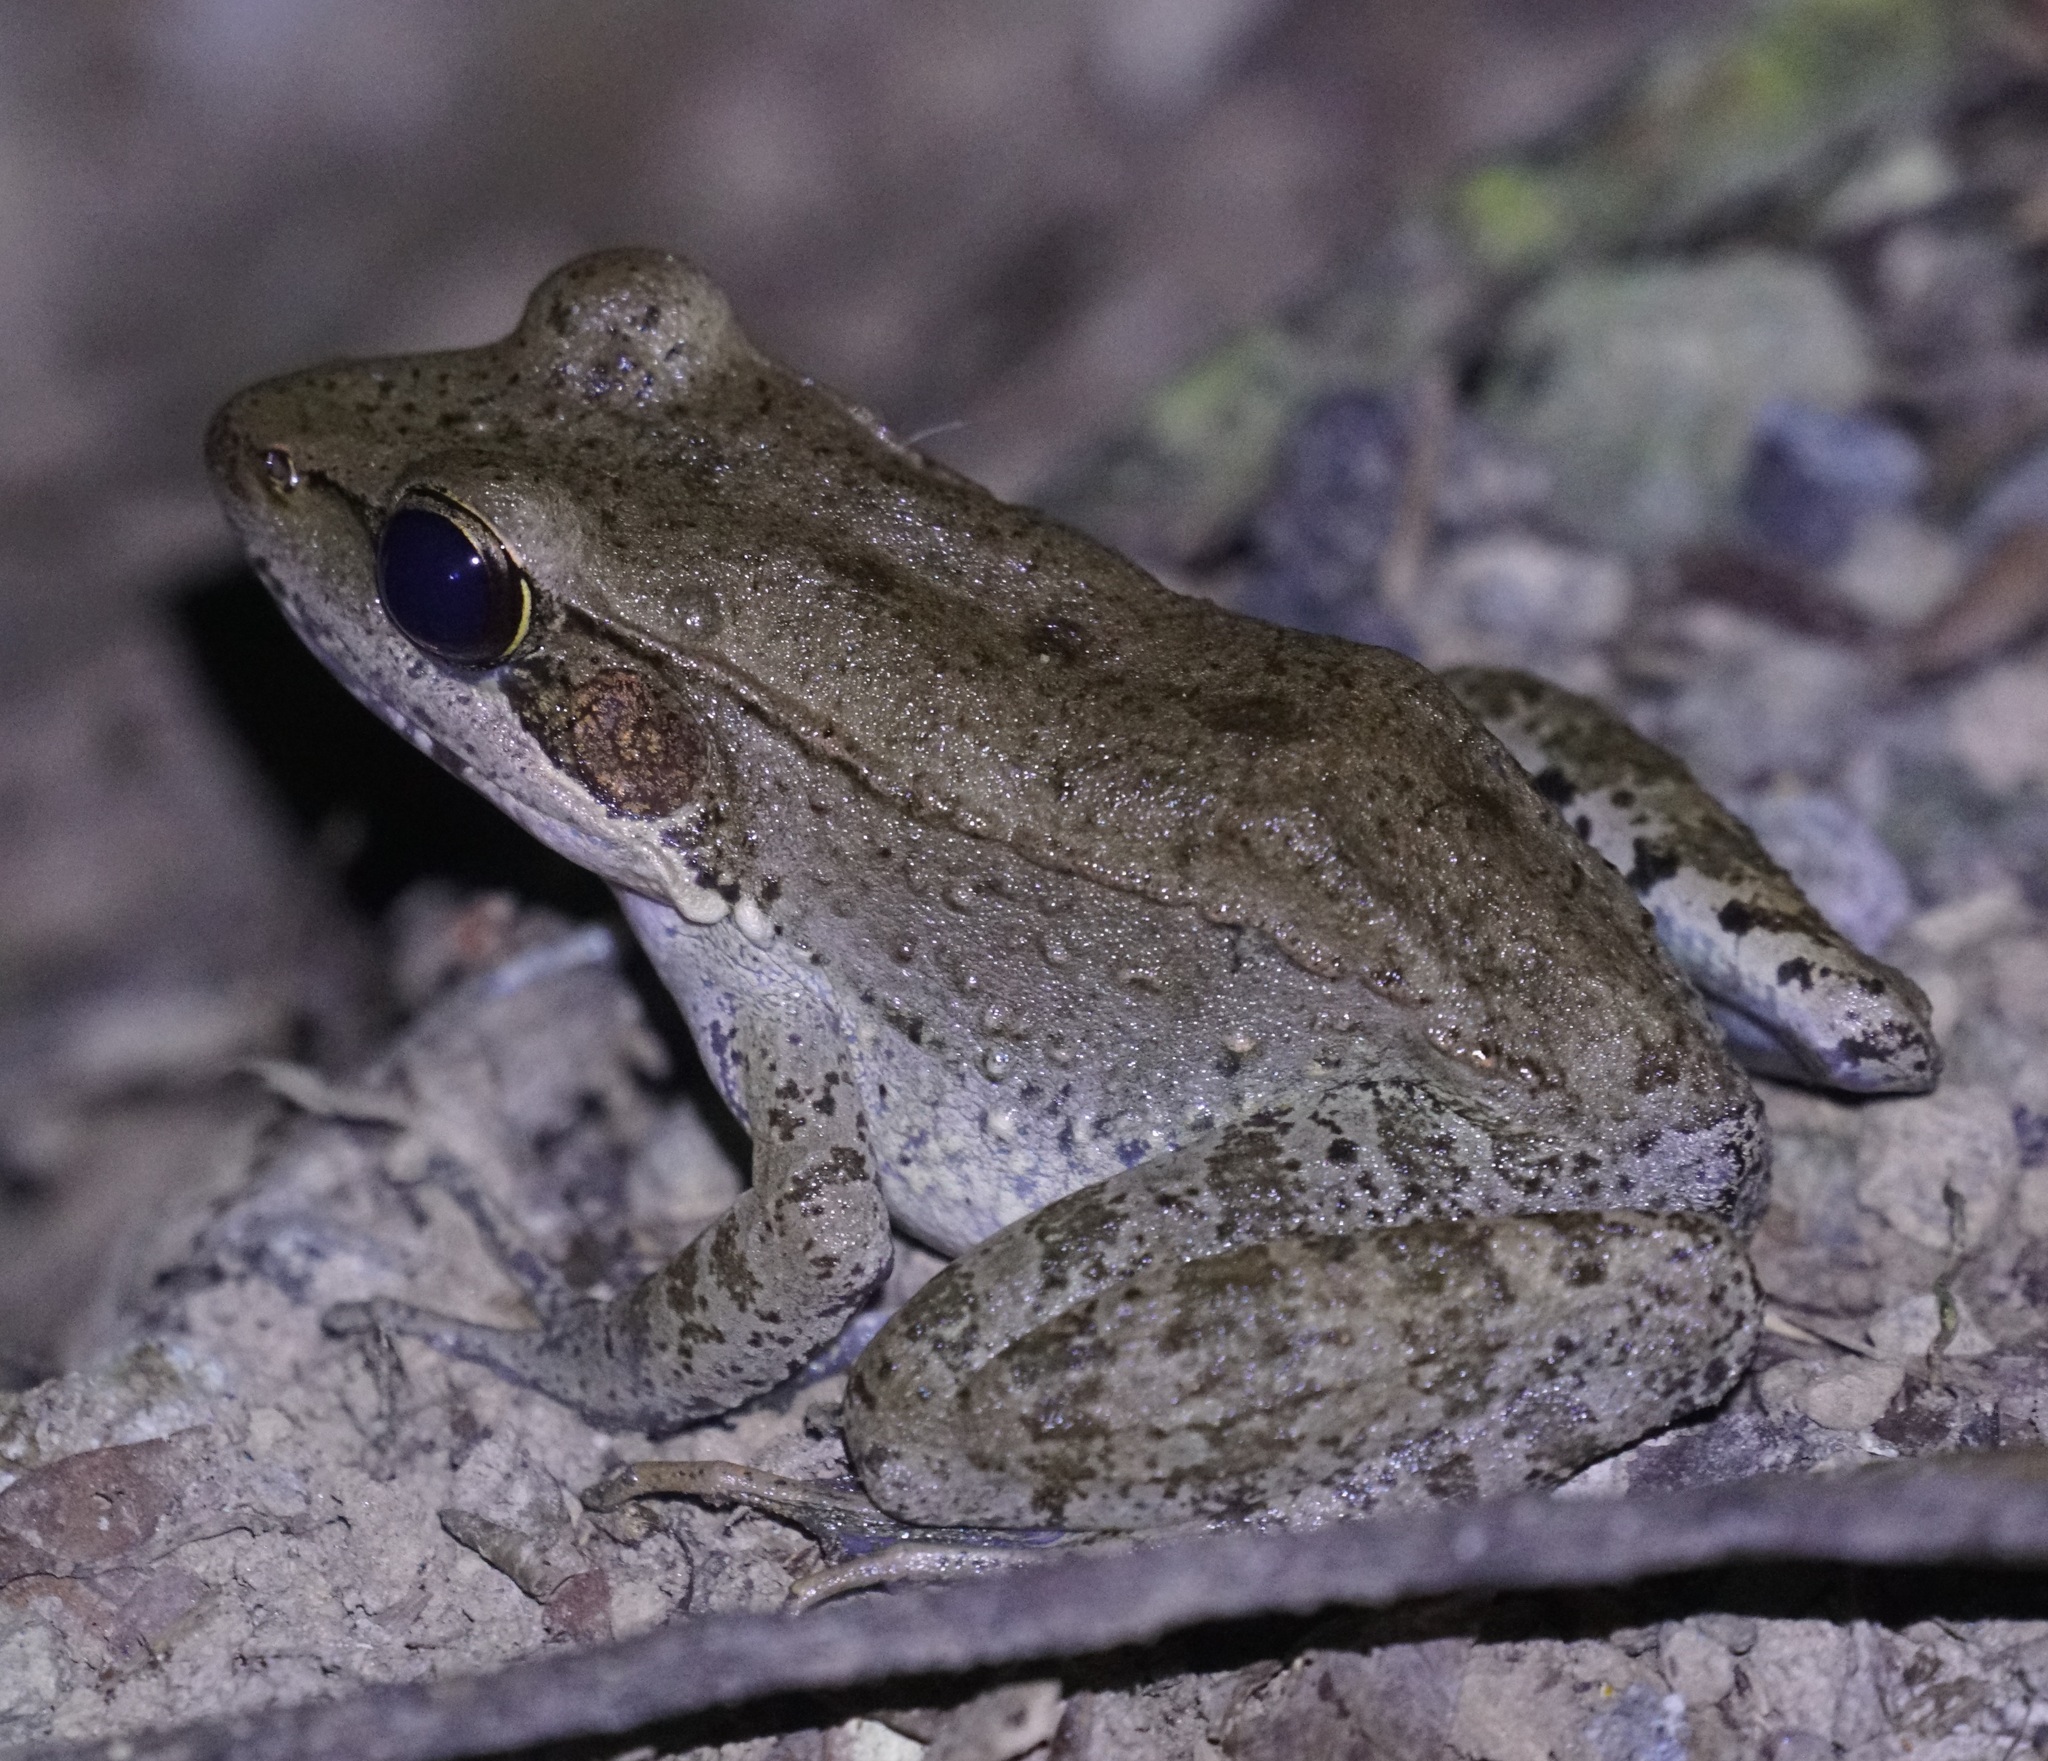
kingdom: Animalia
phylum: Chordata
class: Amphibia
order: Anura
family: Ranidae
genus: Papurana
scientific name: Papurana daemeli
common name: Arhem rana
